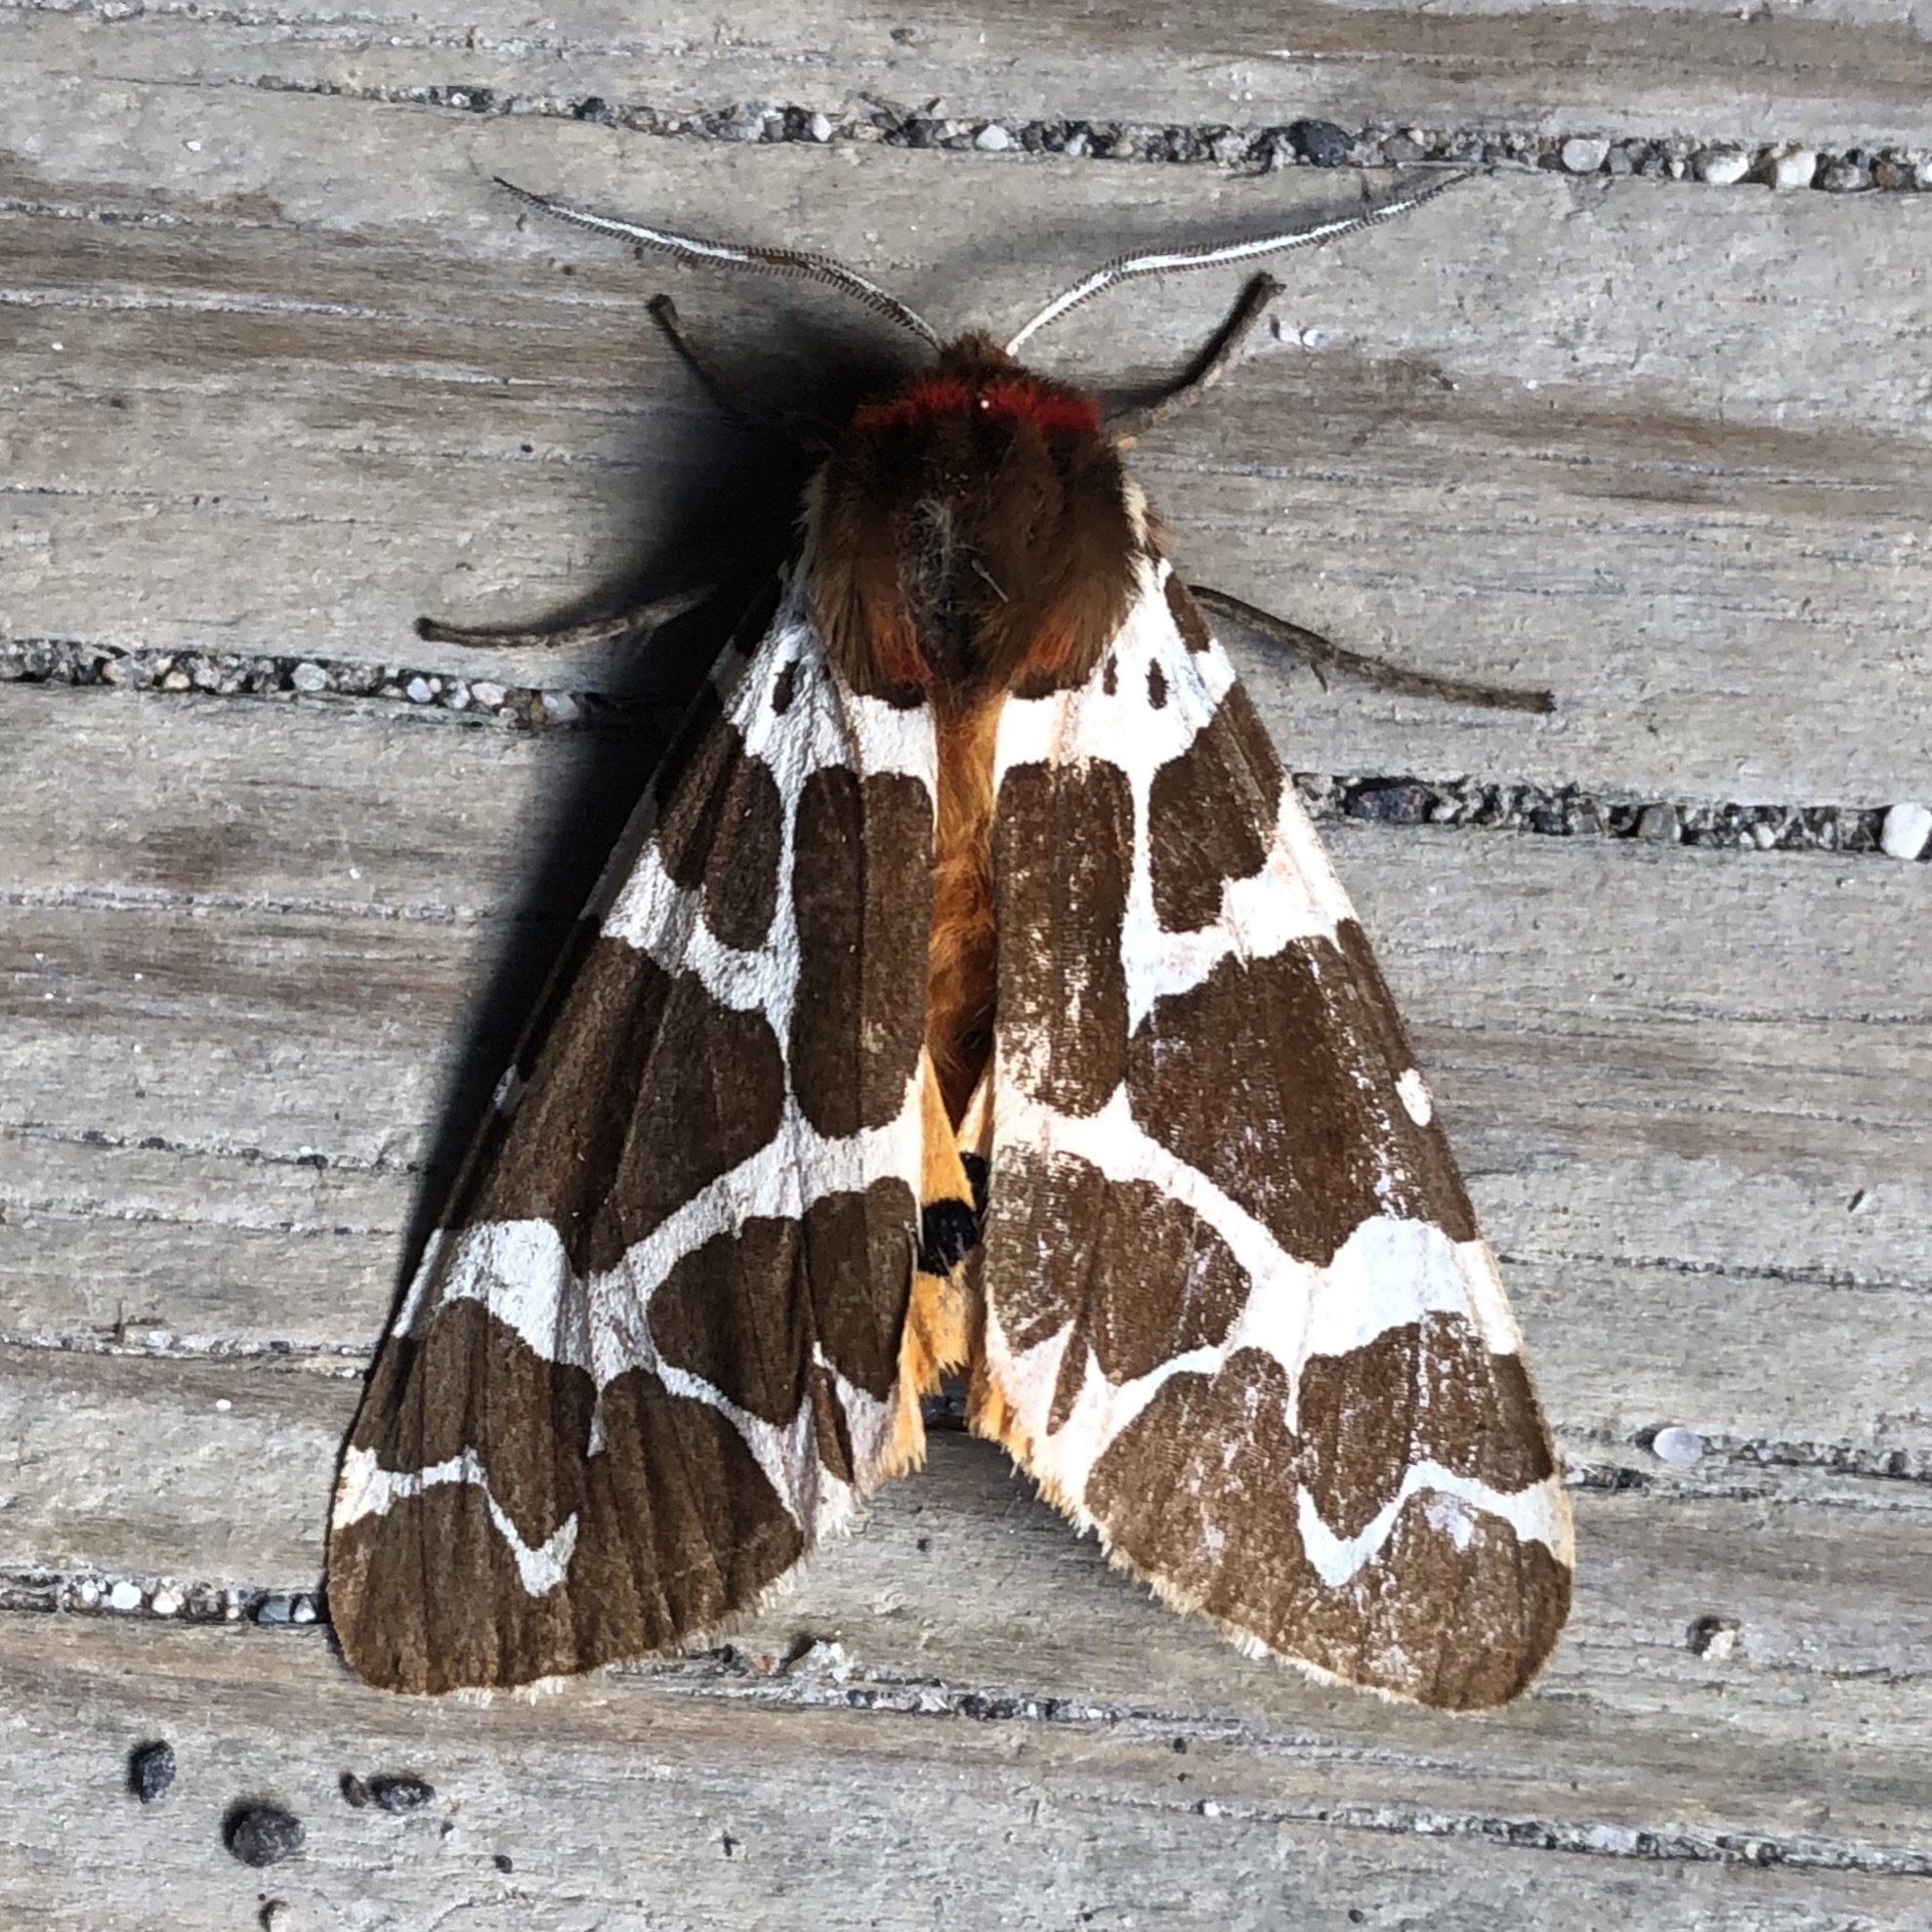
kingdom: Animalia
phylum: Arthropoda
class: Insecta
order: Lepidoptera
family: Erebidae
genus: Arctia
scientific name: Arctia caja
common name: Garden tiger
